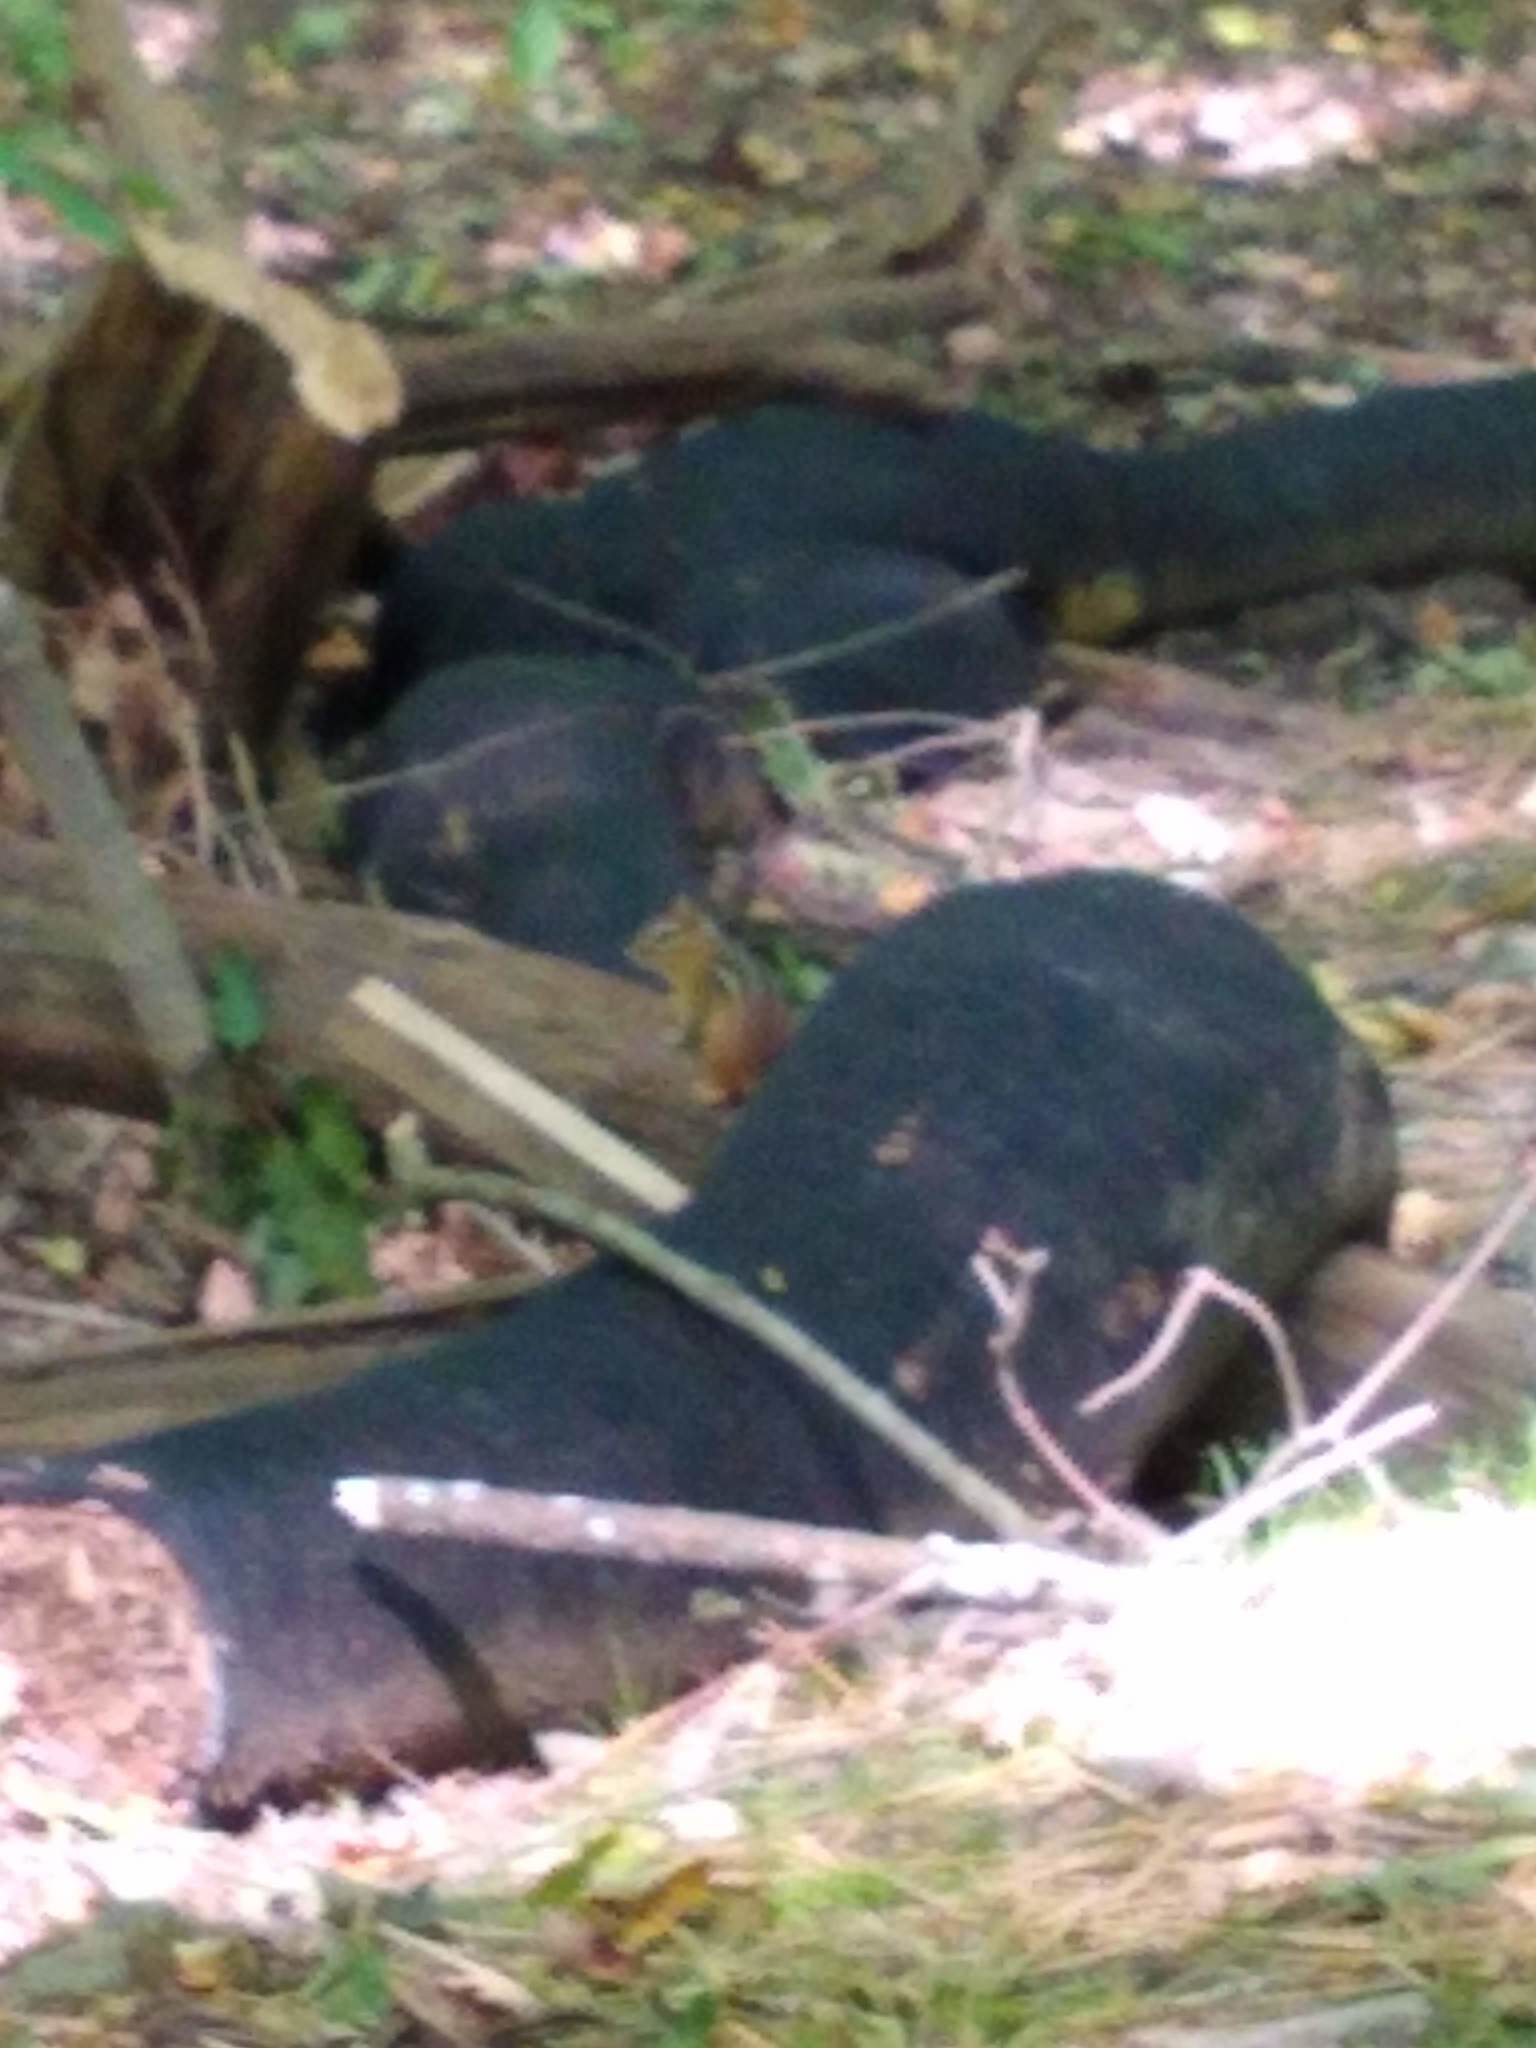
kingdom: Animalia
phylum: Chordata
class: Mammalia
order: Rodentia
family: Sciuridae
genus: Tamias
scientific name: Tamias striatus
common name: Eastern chipmunk
